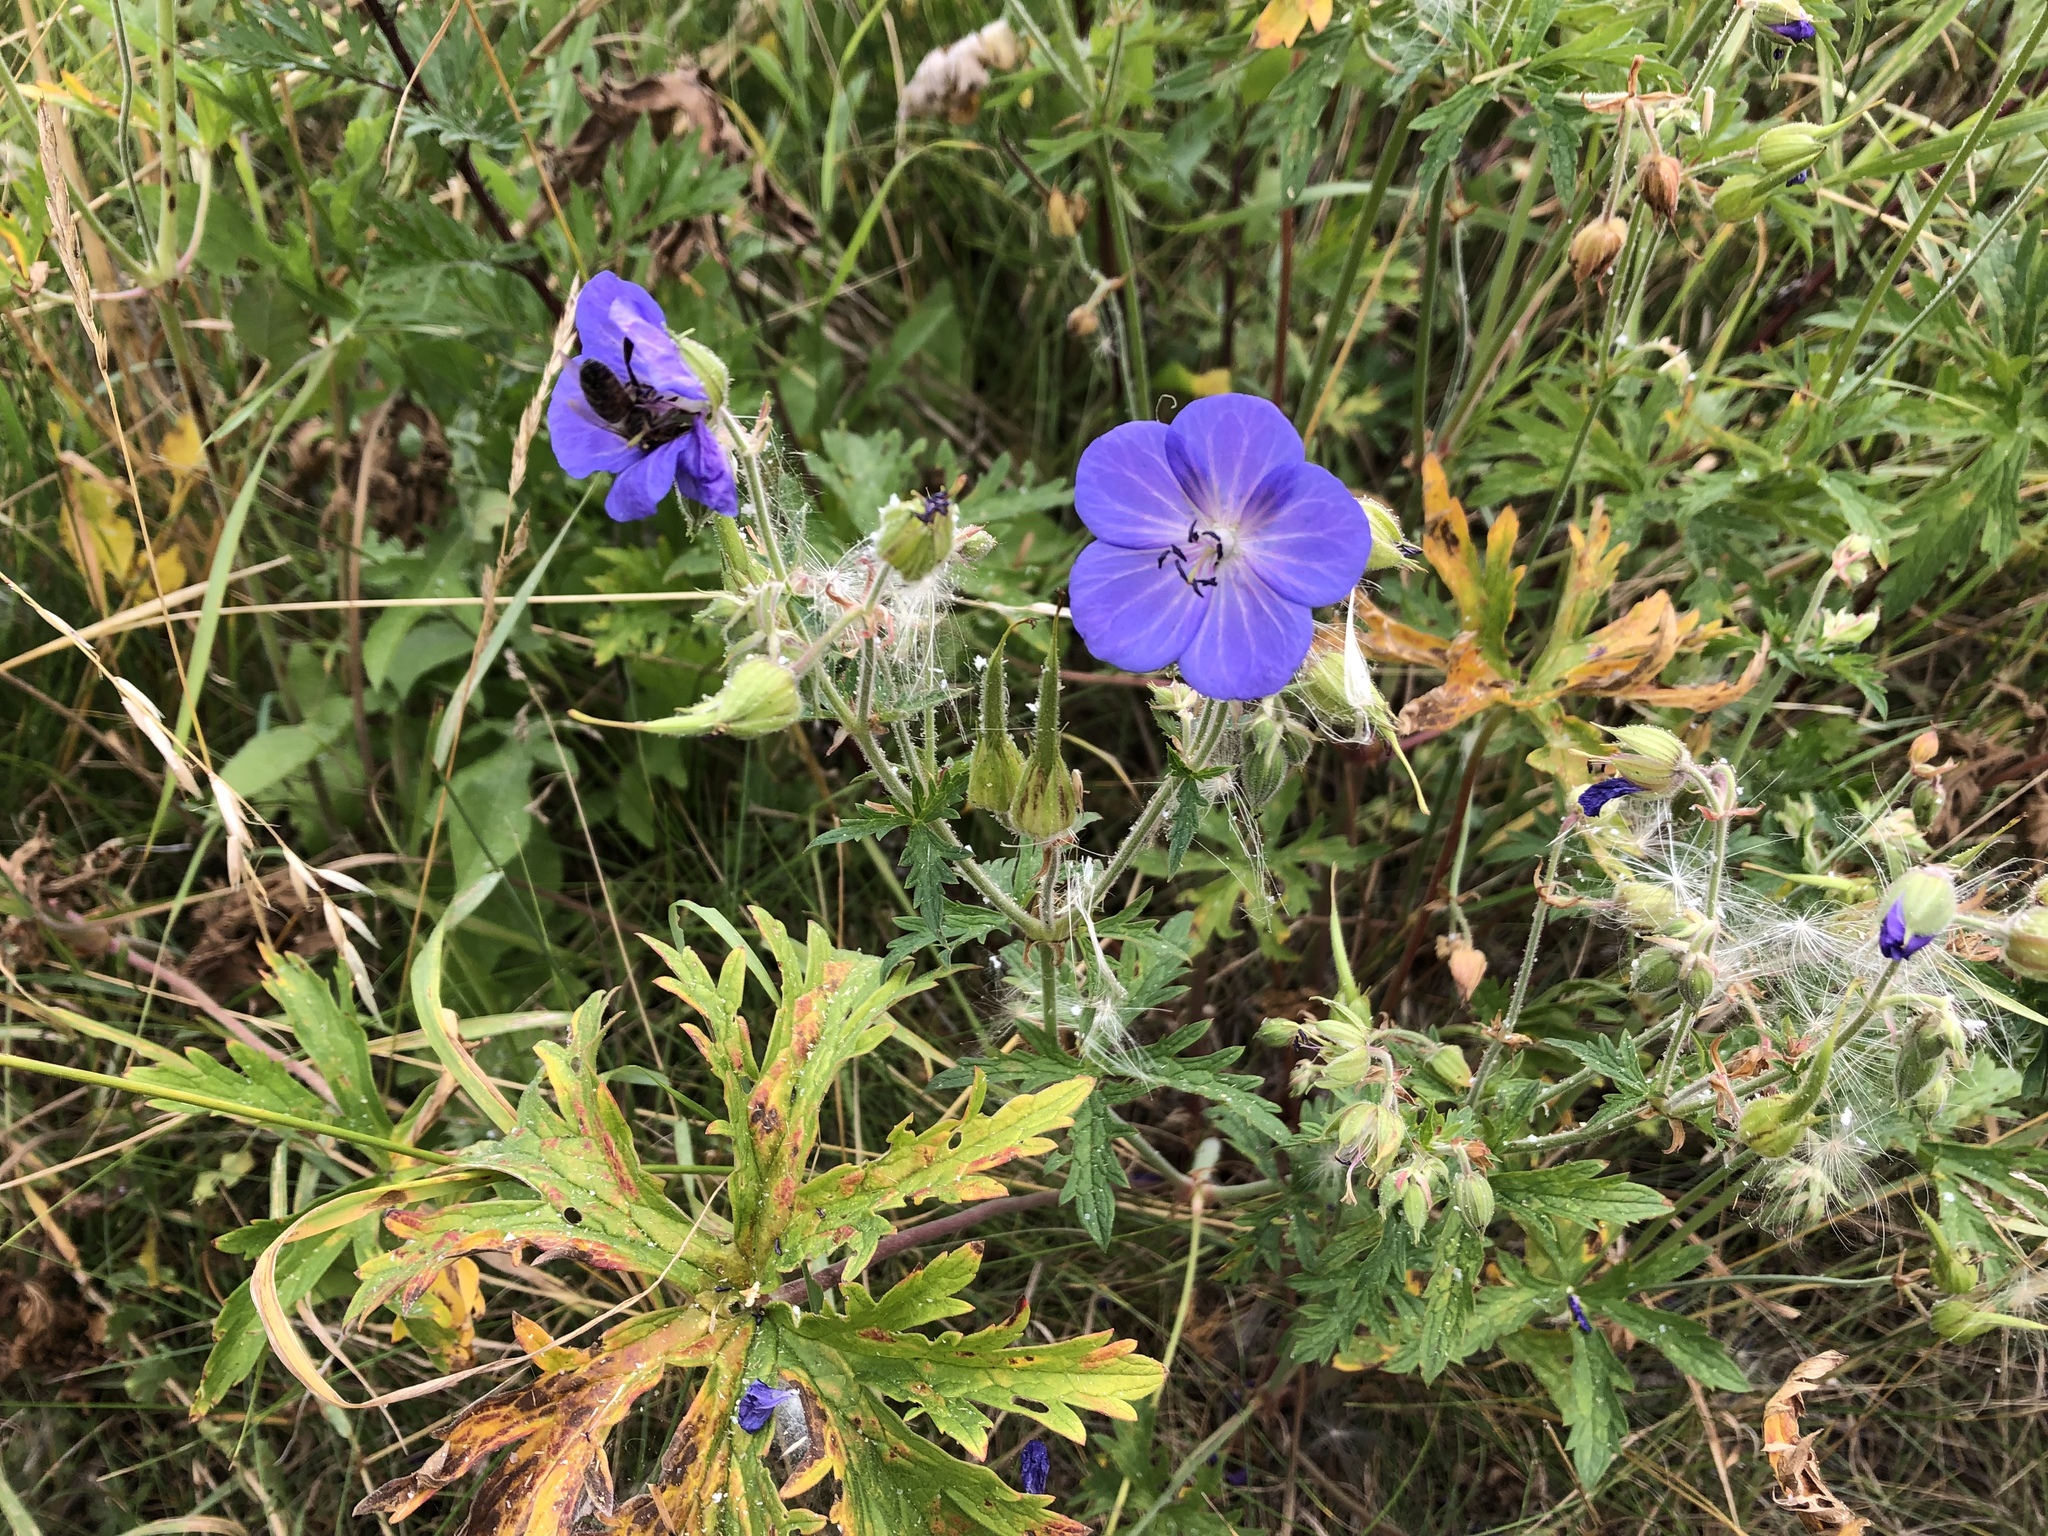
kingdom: Plantae
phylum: Tracheophyta
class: Magnoliopsida
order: Geraniales
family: Geraniaceae
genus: Geranium
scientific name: Geranium pratense
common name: Meadow crane's-bill
